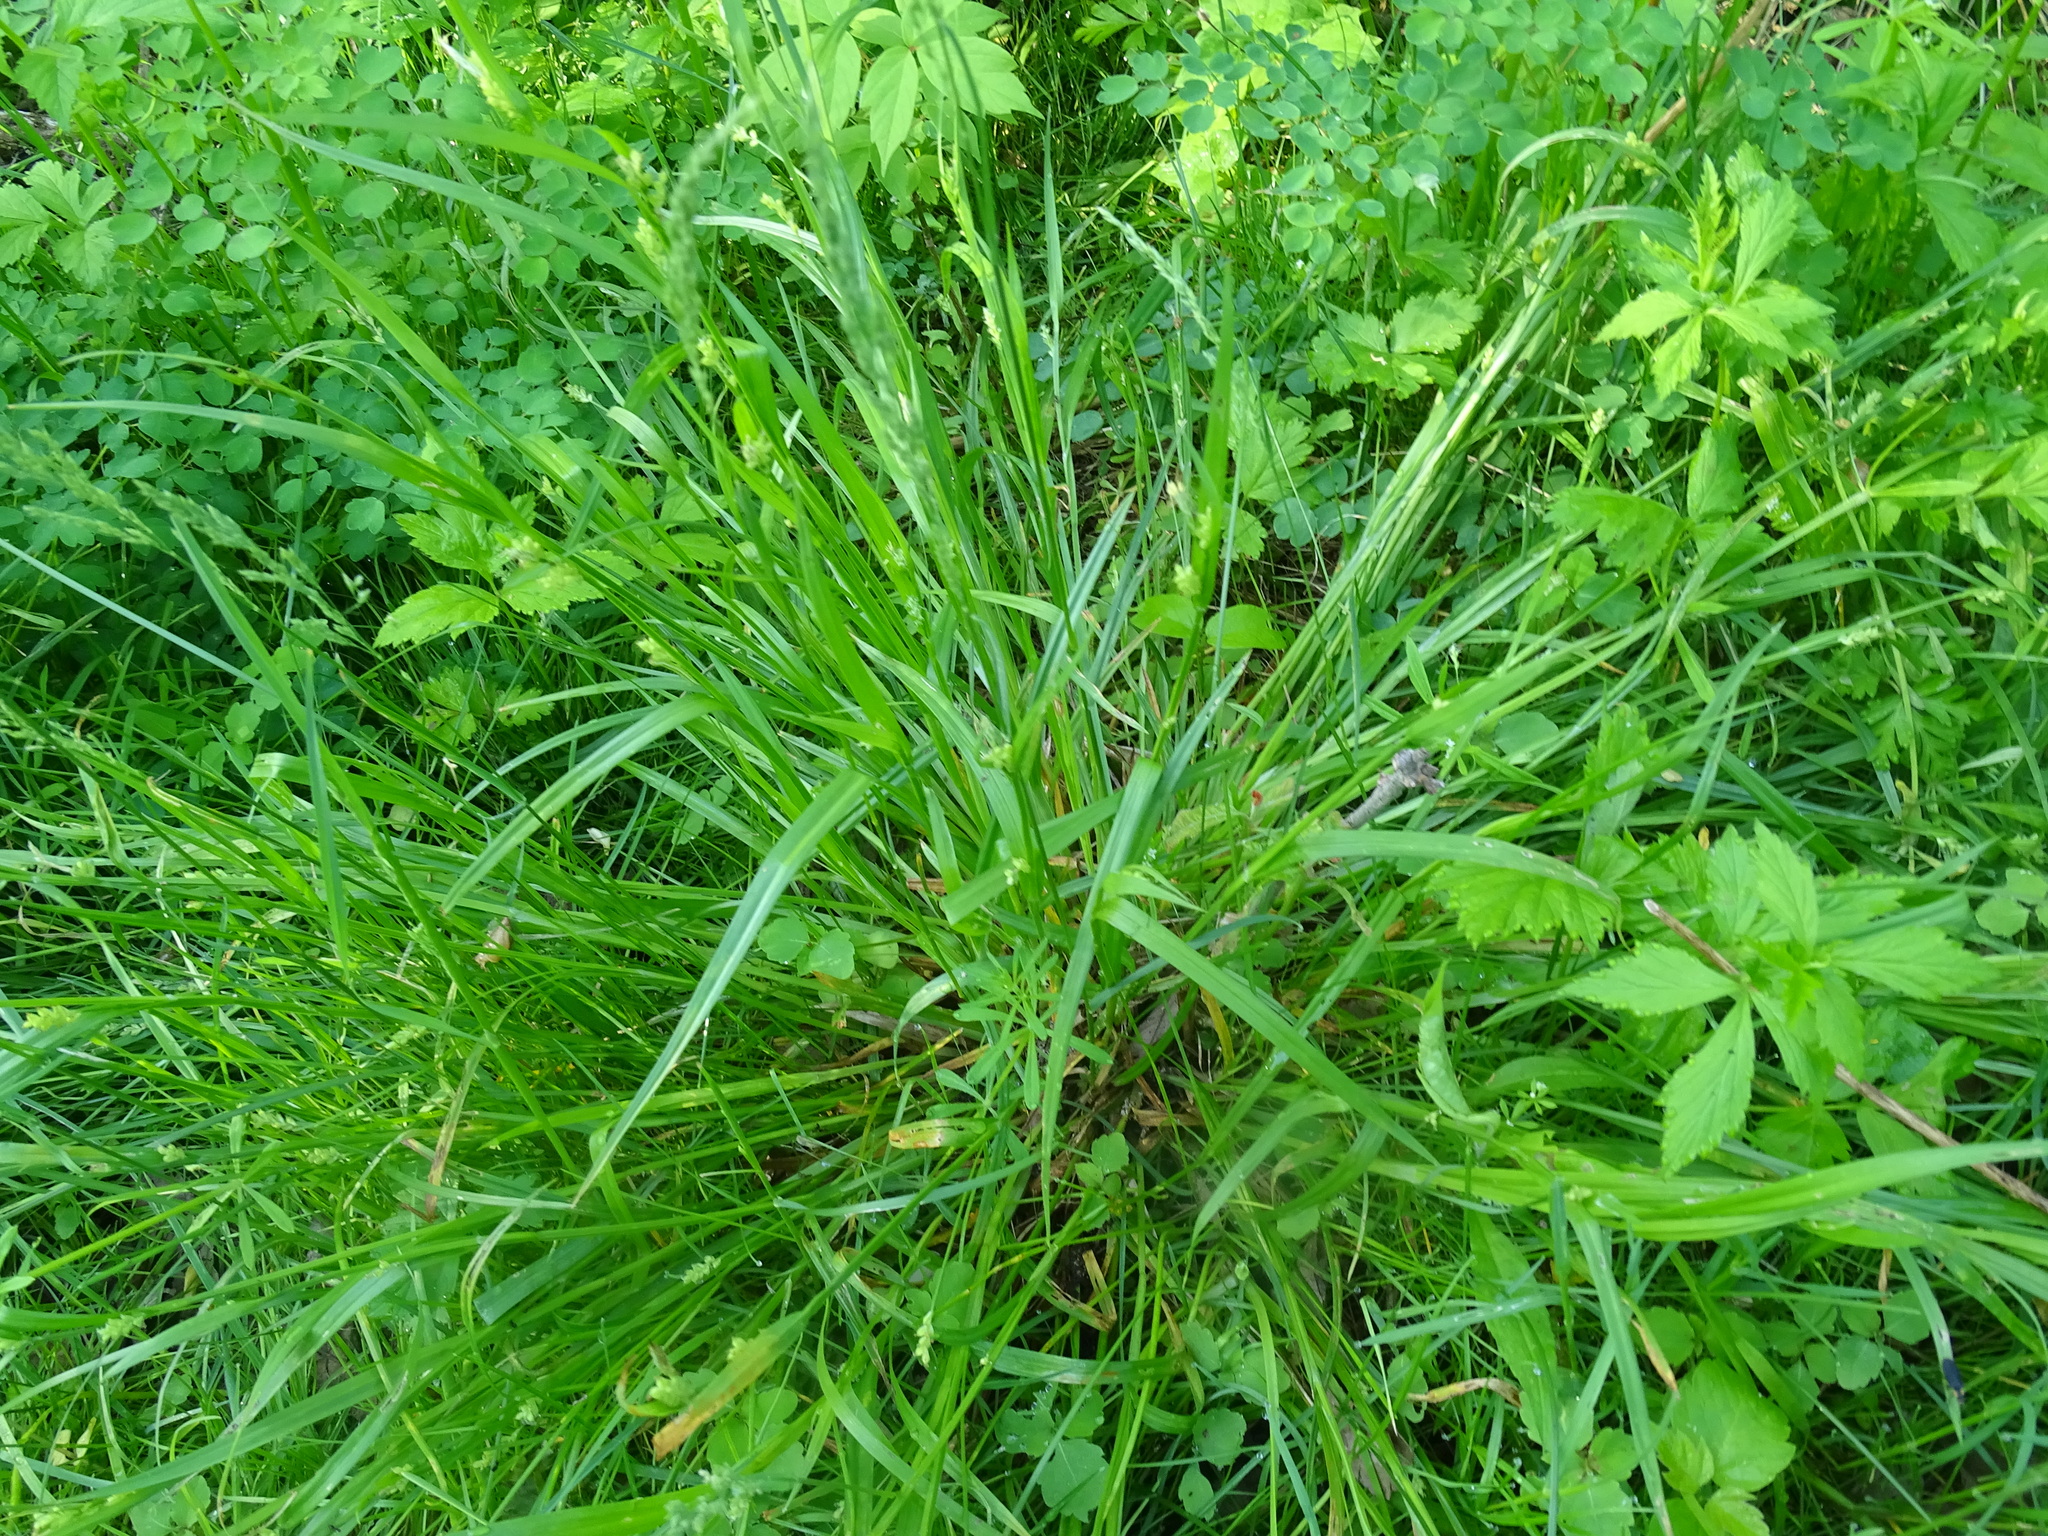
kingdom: Plantae
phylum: Tracheophyta
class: Liliopsida
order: Poales
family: Cyperaceae
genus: Carex
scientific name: Carex blanda
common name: Bland sedge
